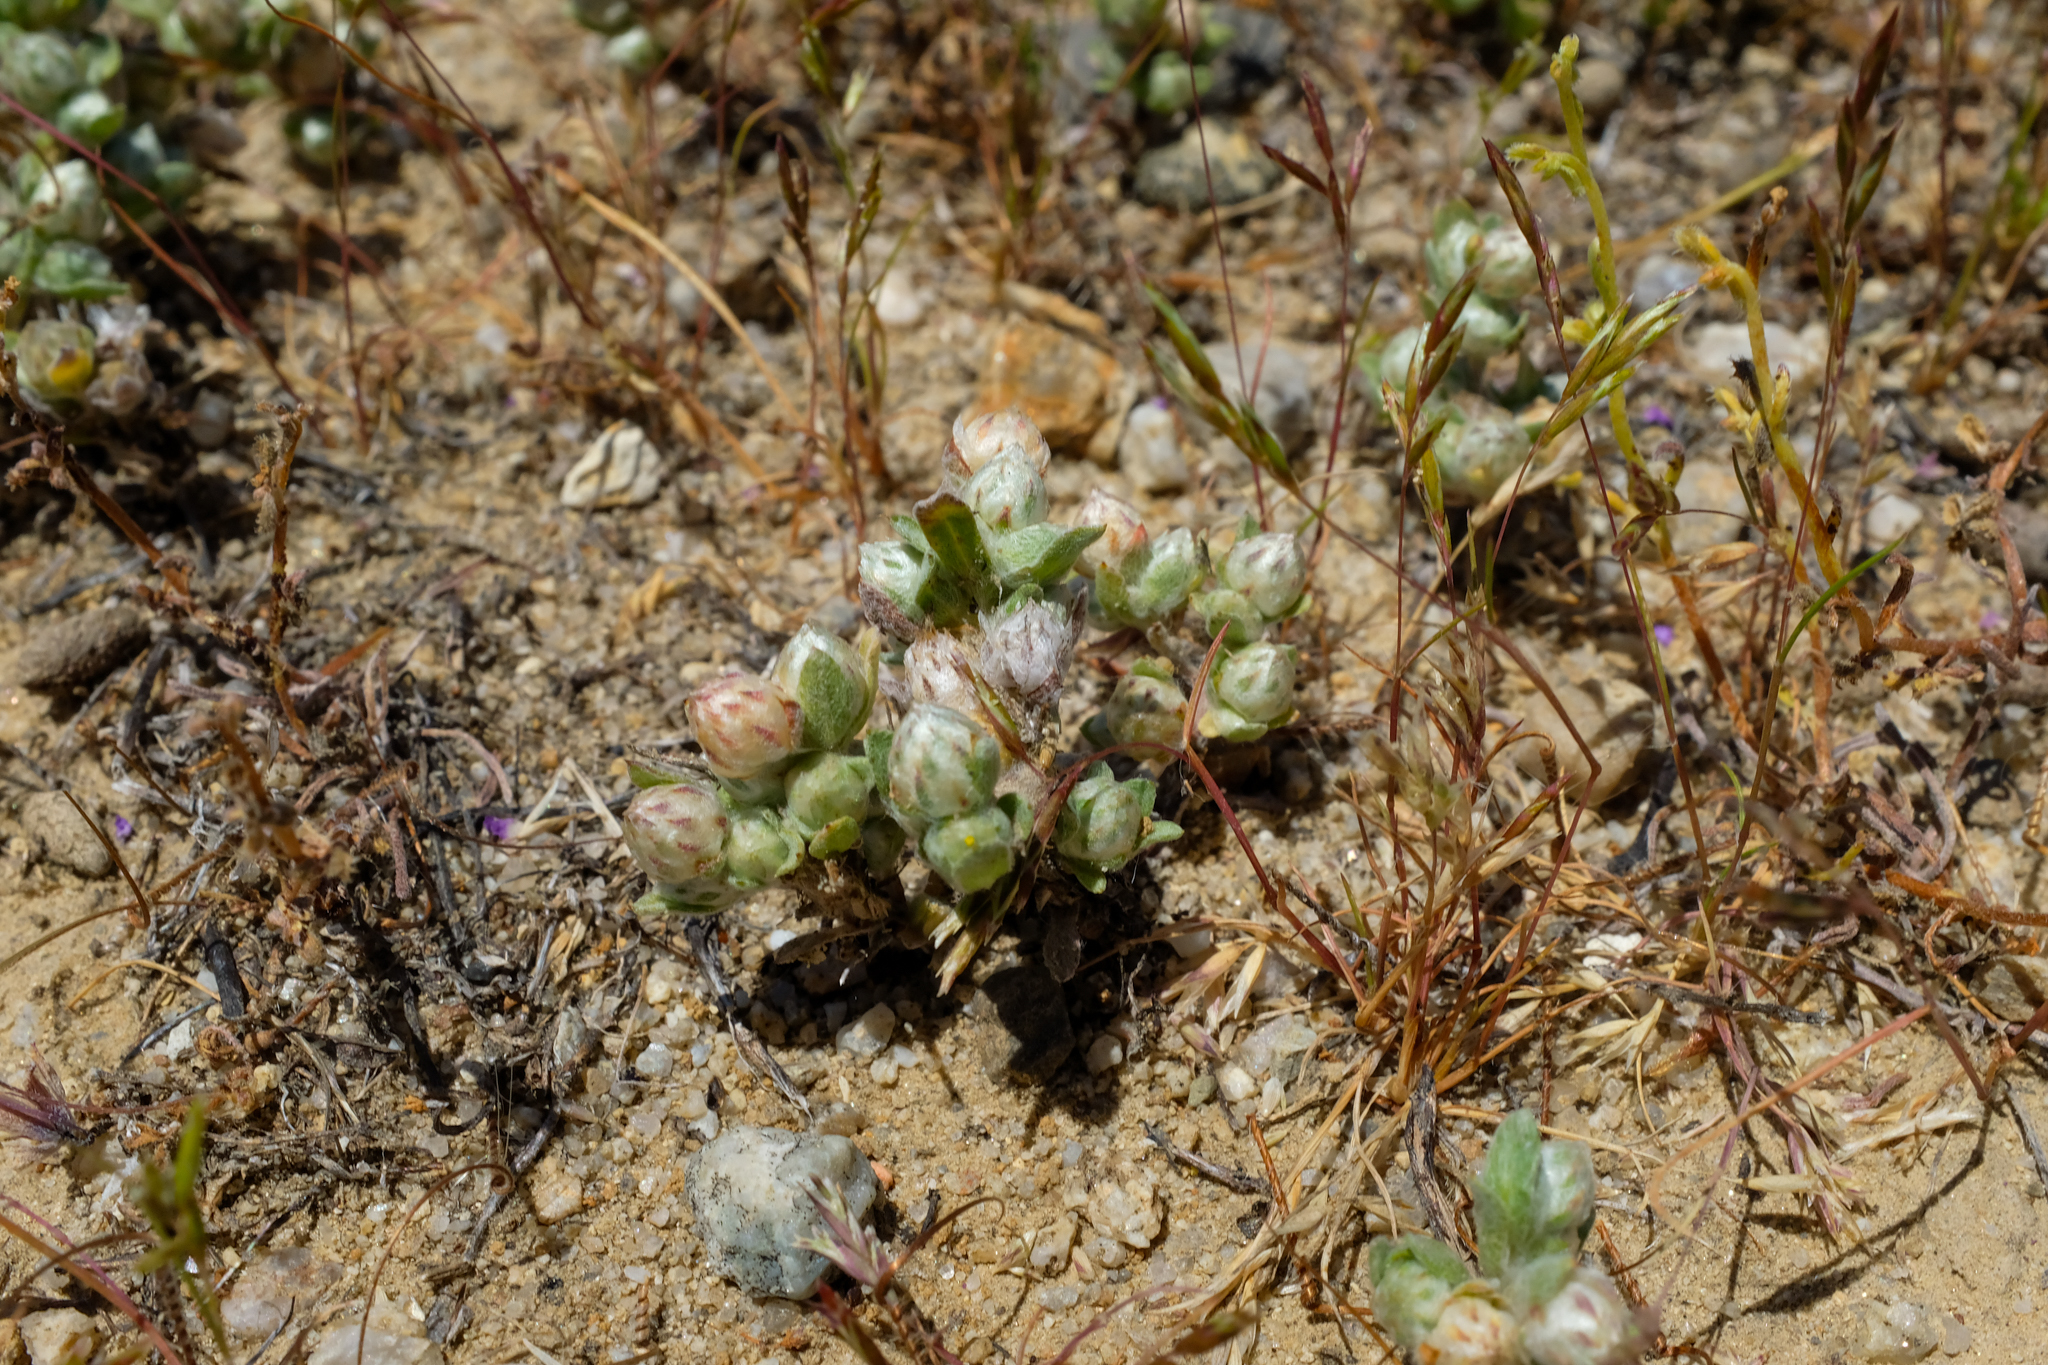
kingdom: Plantae
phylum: Tracheophyta
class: Magnoliopsida
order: Asterales
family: Asteraceae
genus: Stylocline
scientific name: Stylocline gnaphaloides
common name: Everlasting nest-straw
